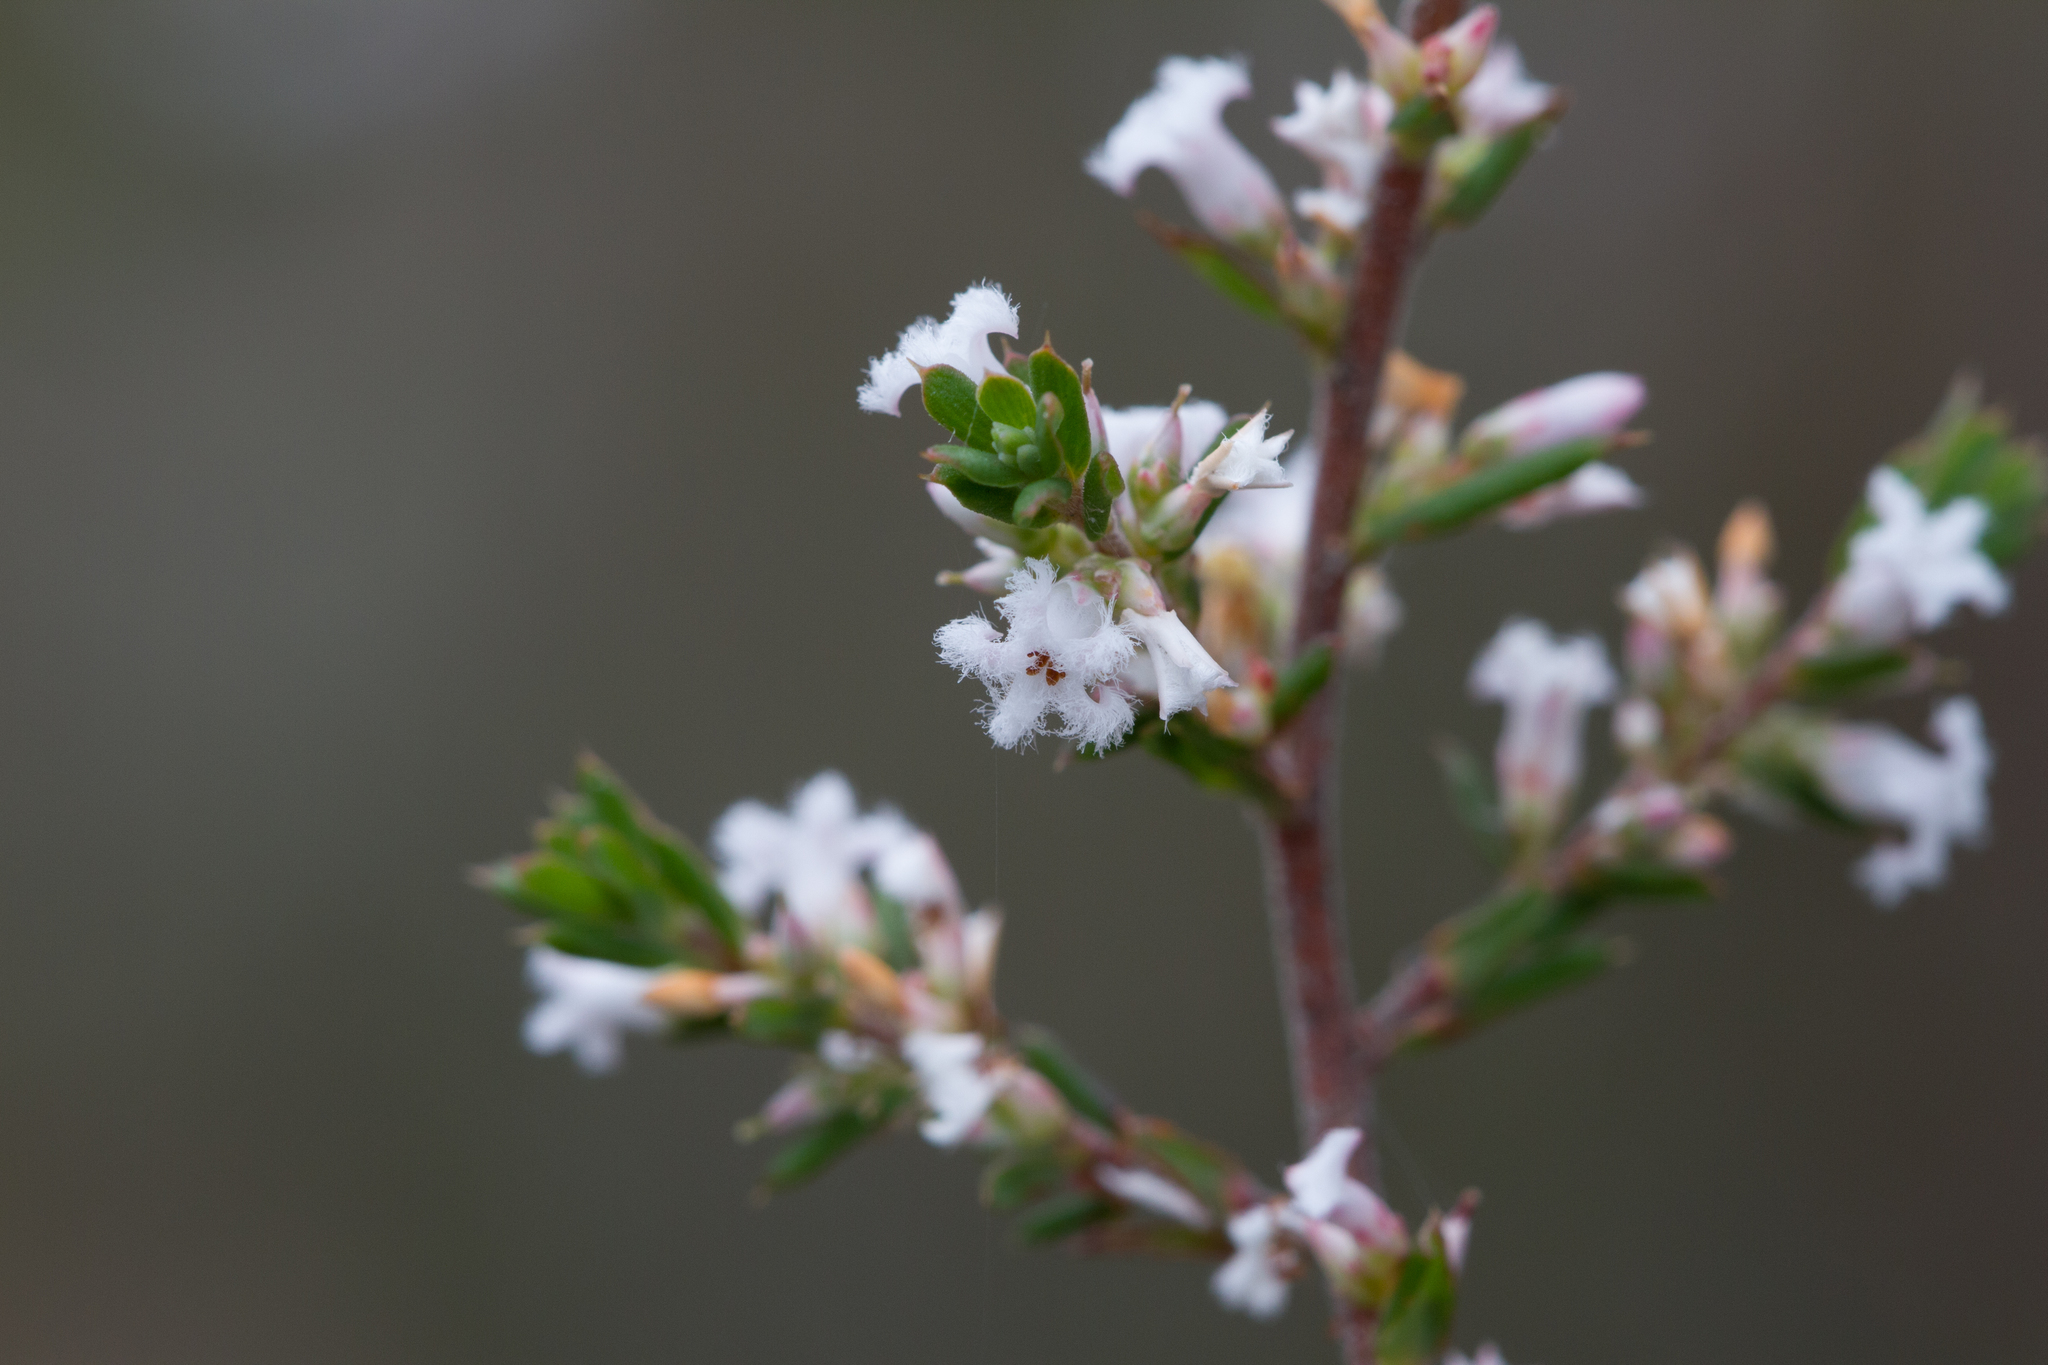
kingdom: Plantae
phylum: Tracheophyta
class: Magnoliopsida
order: Ericales
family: Ericaceae
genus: Styphelia
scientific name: Styphelia ericoides
